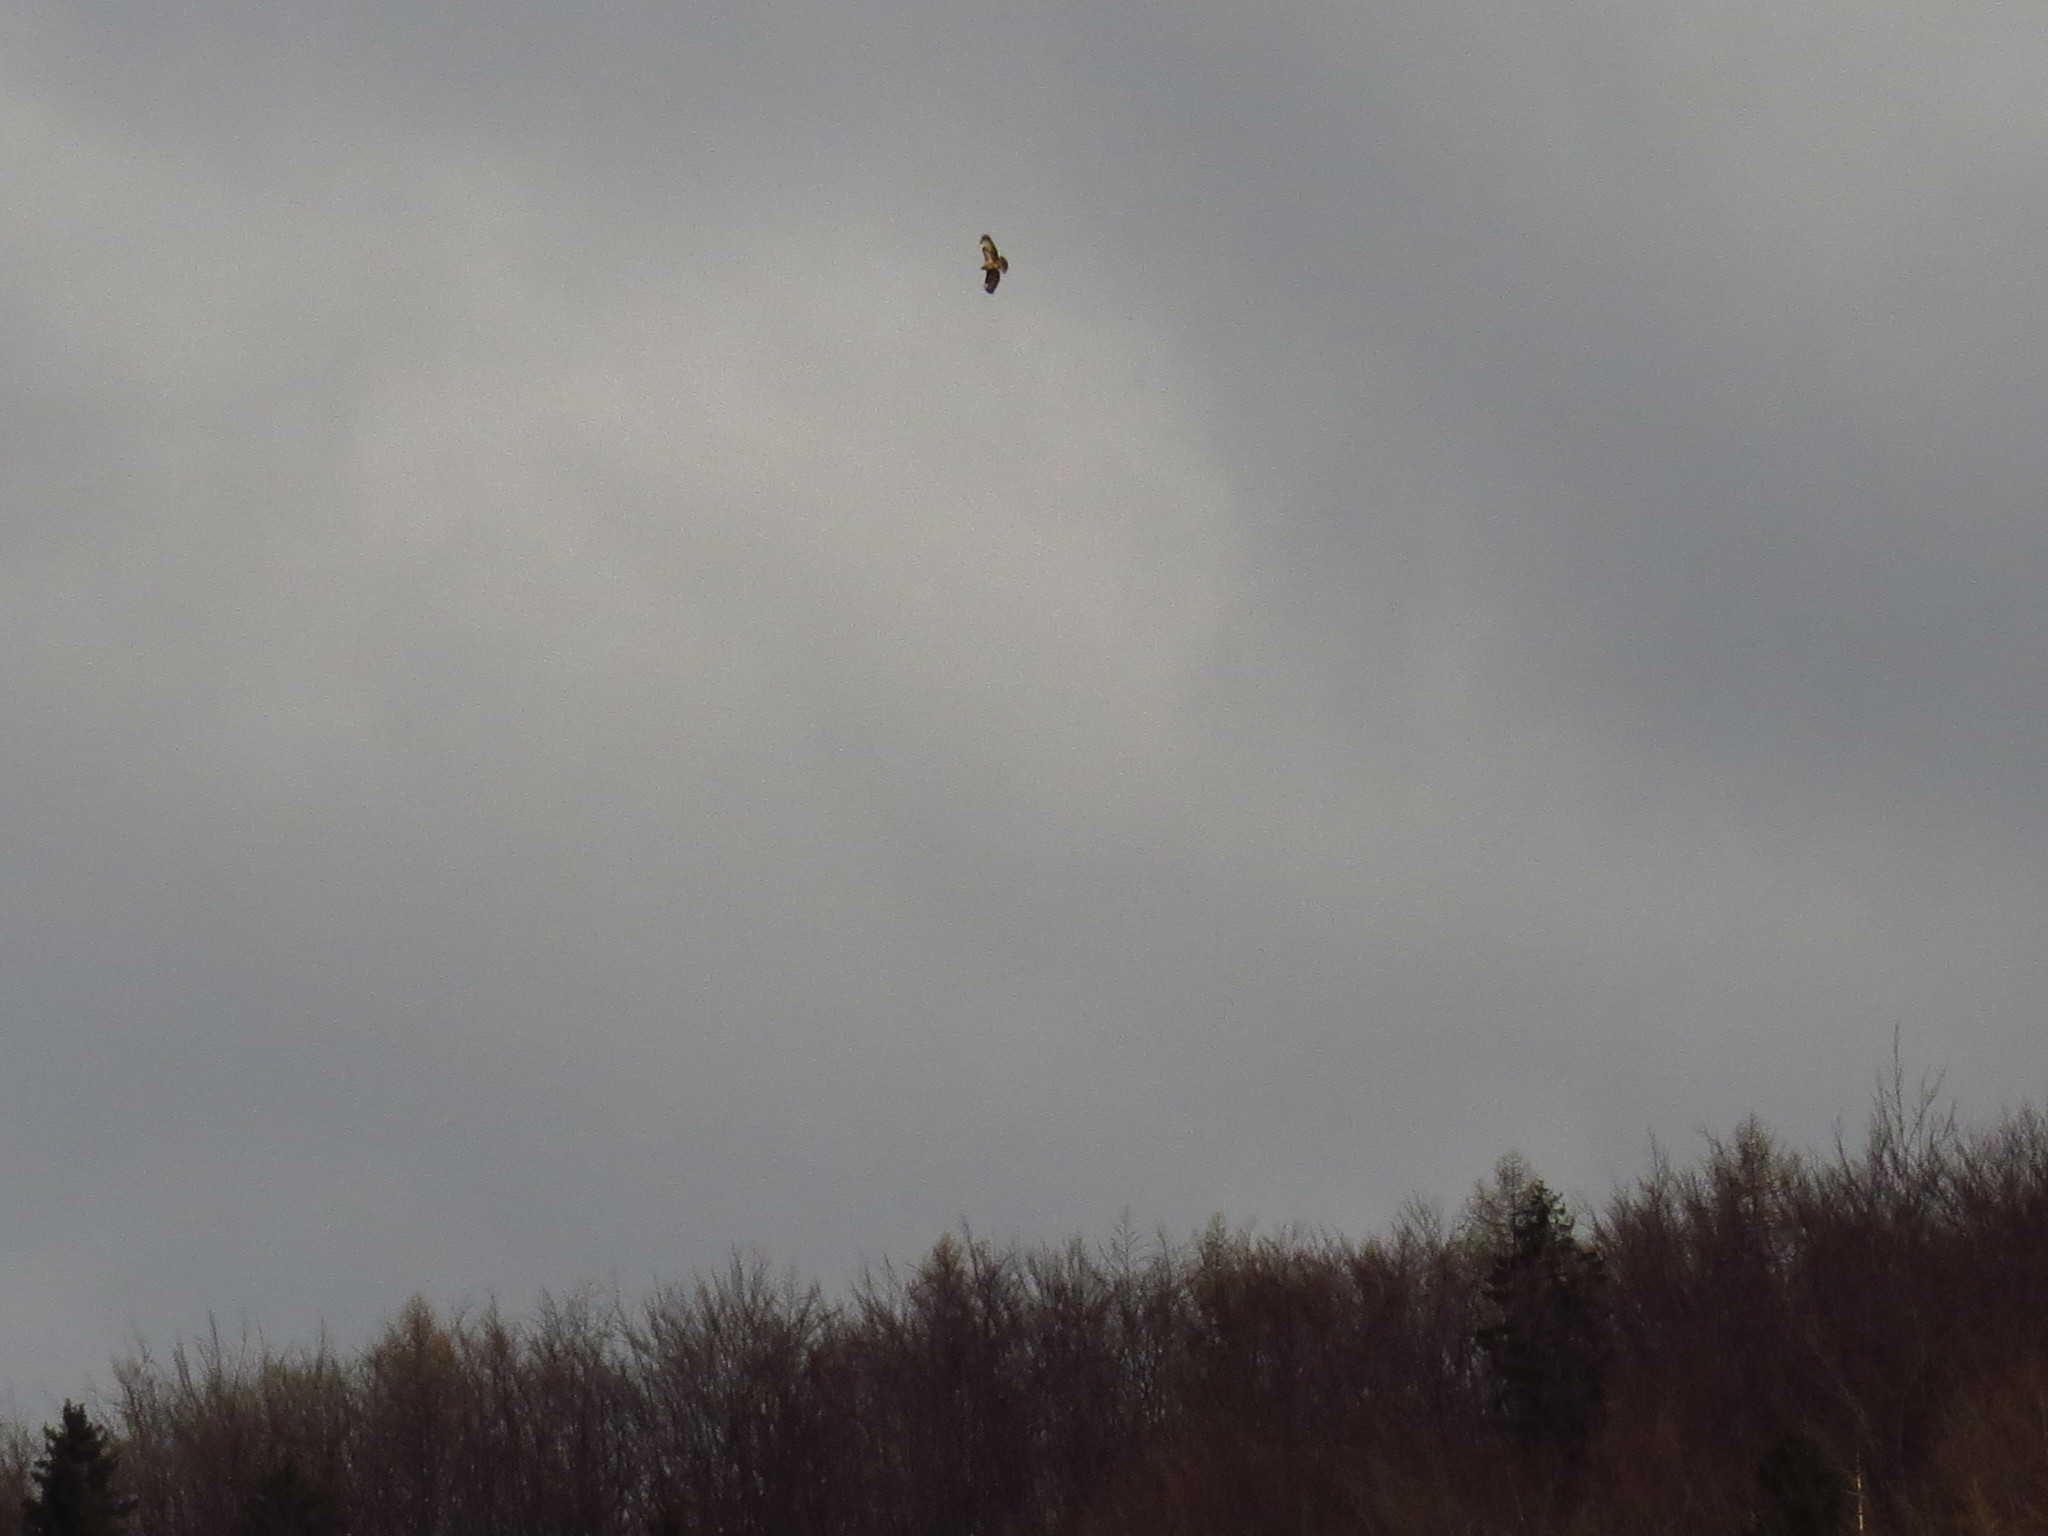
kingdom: Animalia
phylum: Chordata
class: Aves
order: Accipitriformes
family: Accipitridae
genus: Buteo
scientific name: Buteo buteo
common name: Common buzzard
